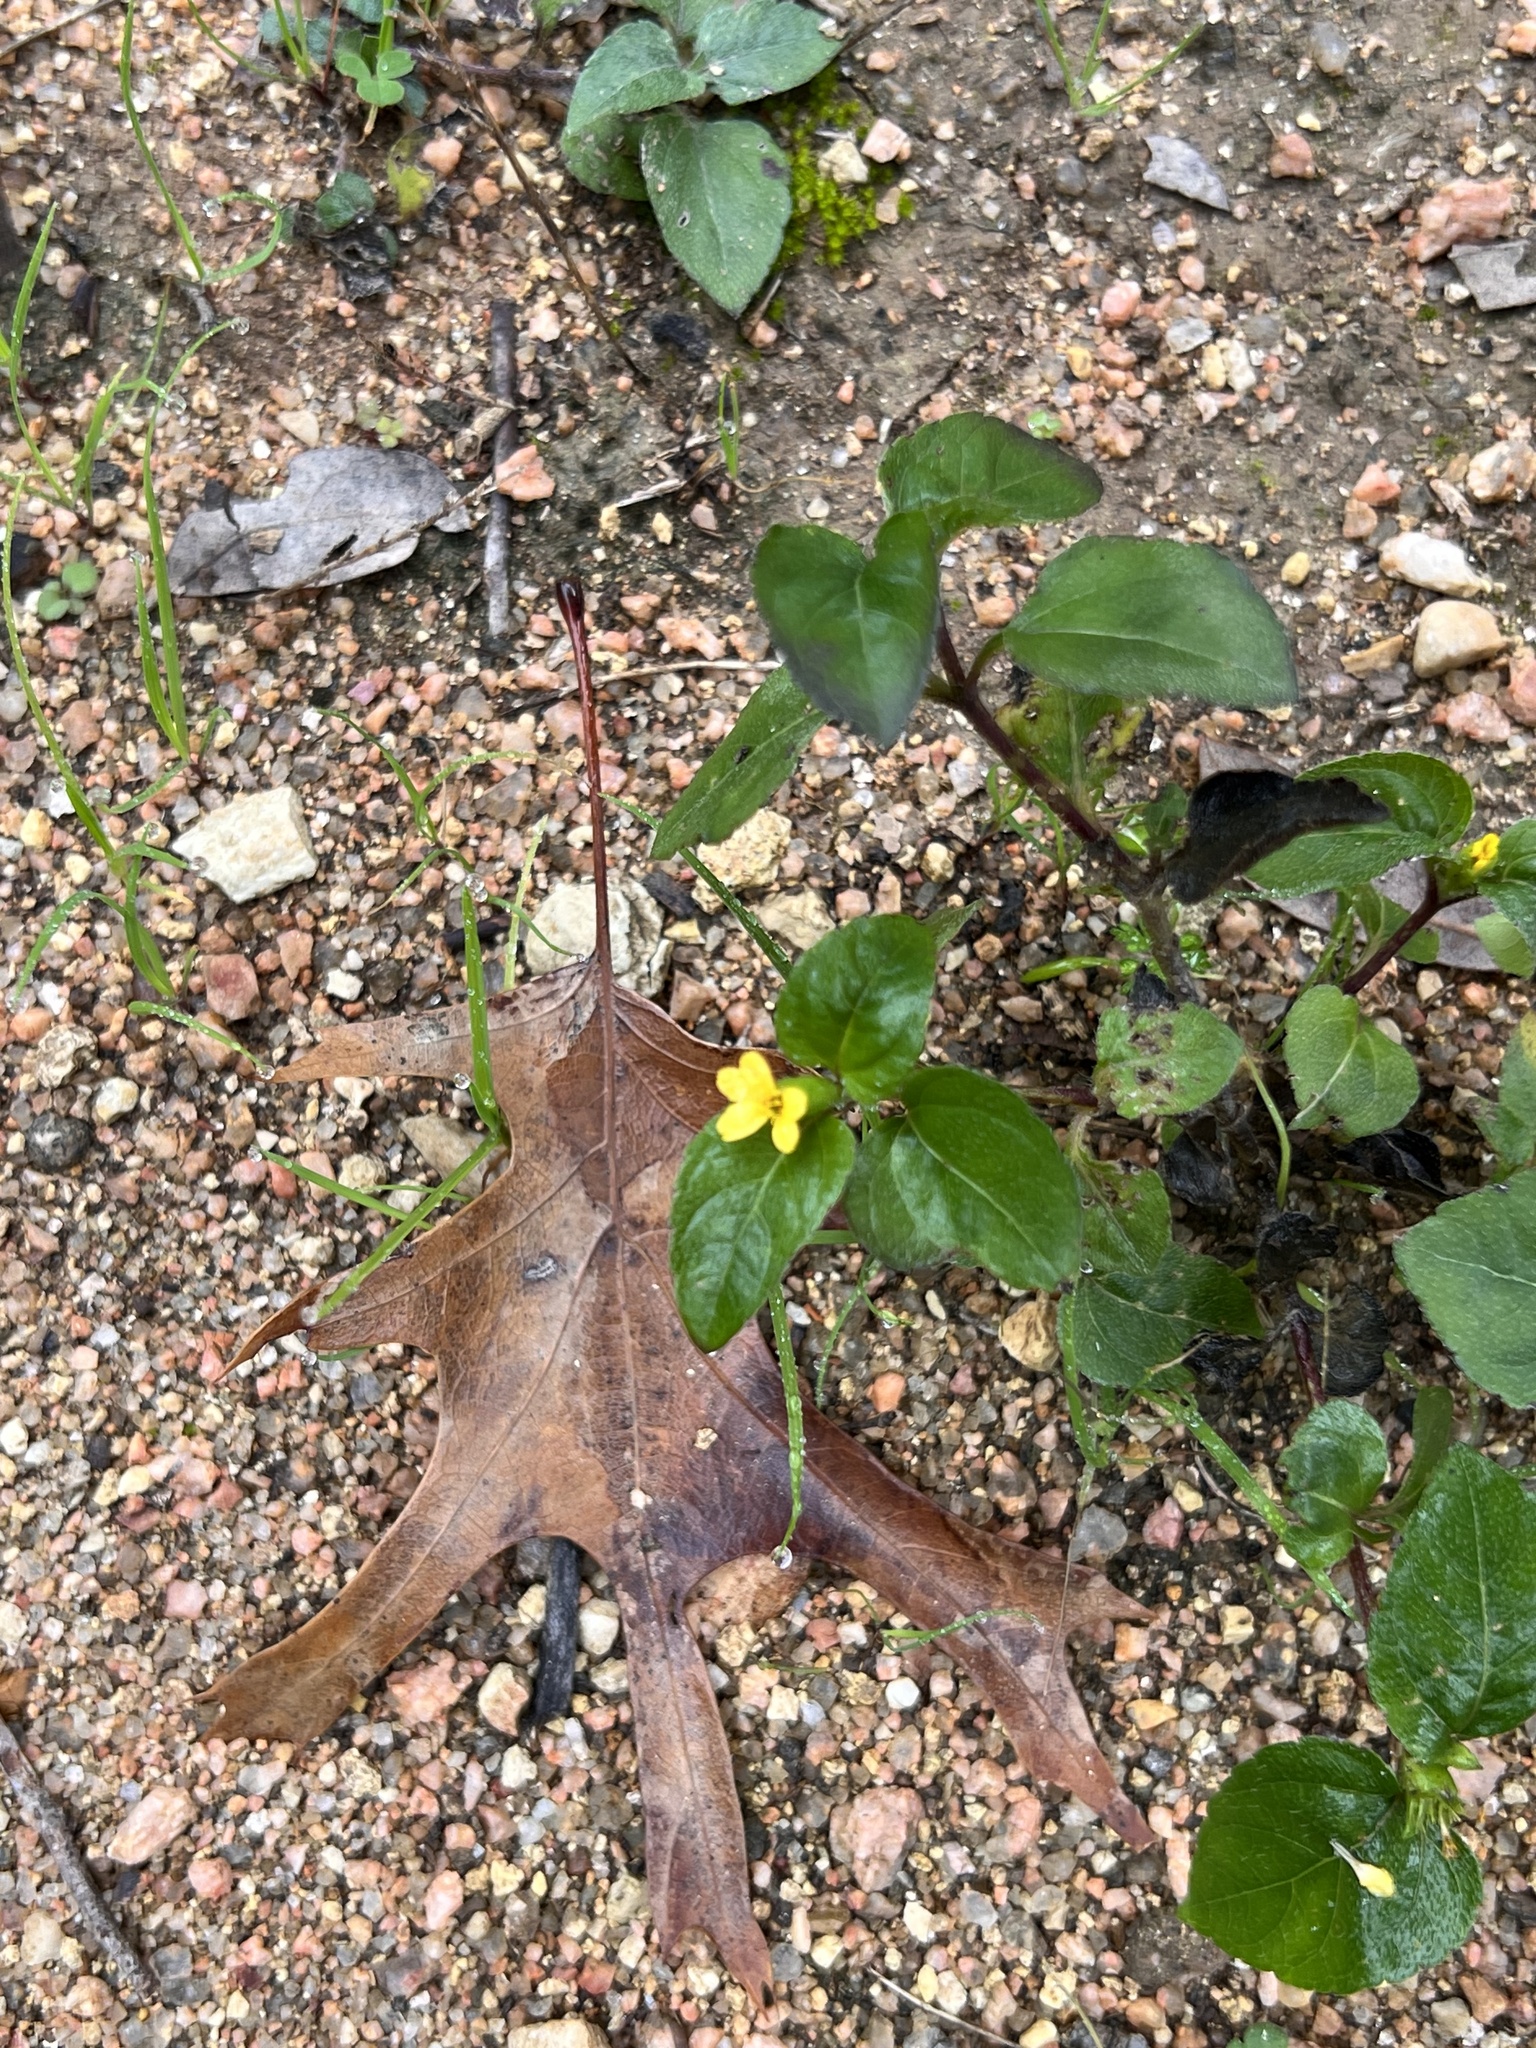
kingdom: Plantae
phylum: Tracheophyta
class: Magnoliopsida
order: Asterales
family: Asteraceae
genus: Calyptocarpus
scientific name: Calyptocarpus vialis
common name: Straggler daisy
